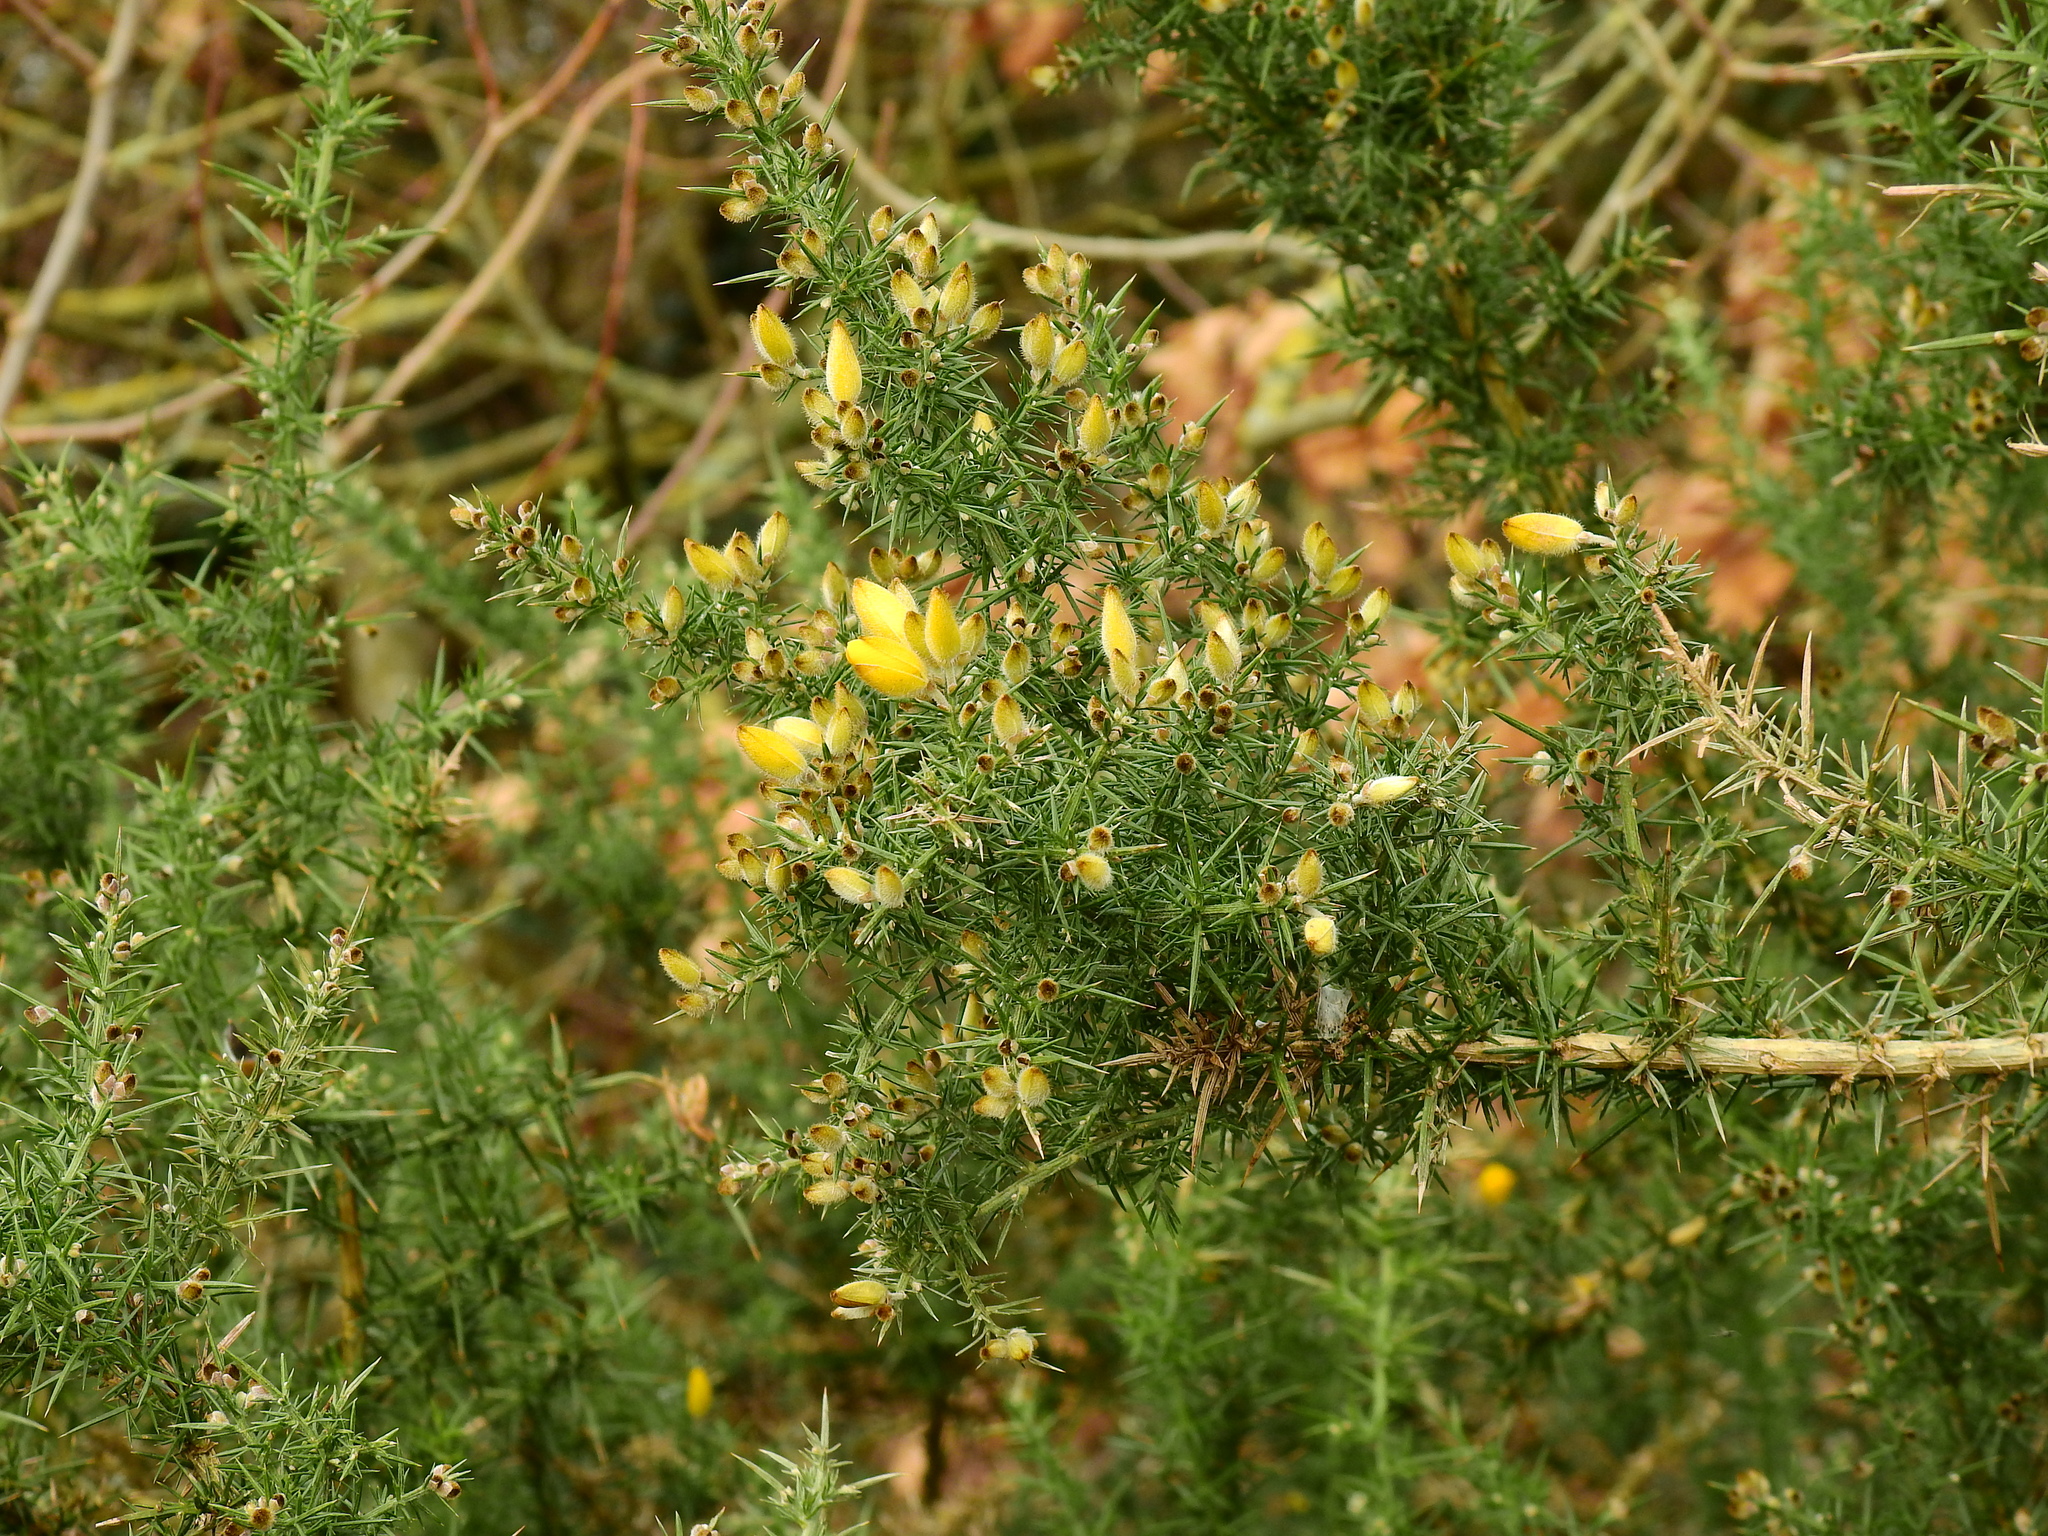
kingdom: Plantae
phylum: Tracheophyta
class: Magnoliopsida
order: Fabales
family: Fabaceae
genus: Ulex
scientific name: Ulex europaeus
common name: Common gorse
